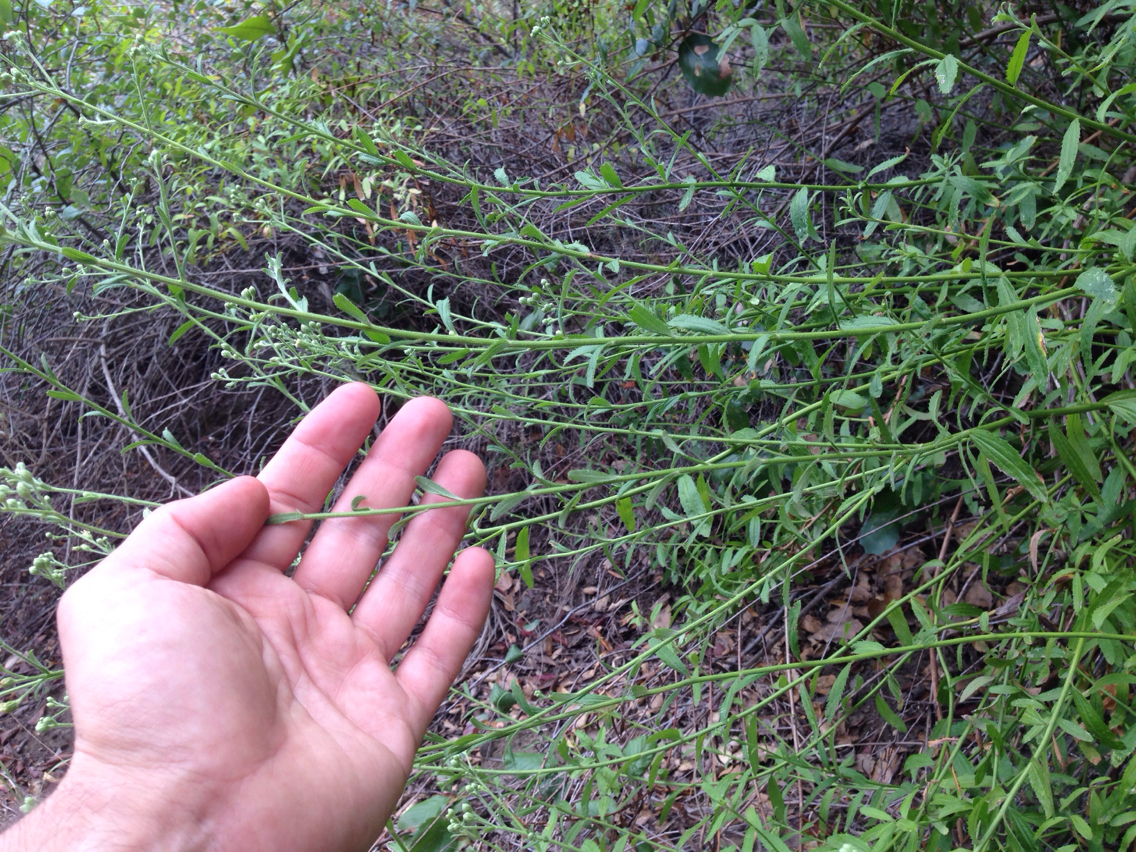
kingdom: Plantae
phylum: Tracheophyta
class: Magnoliopsida
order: Asterales
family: Asteraceae
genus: Baccharis
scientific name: Baccharis plummerae
